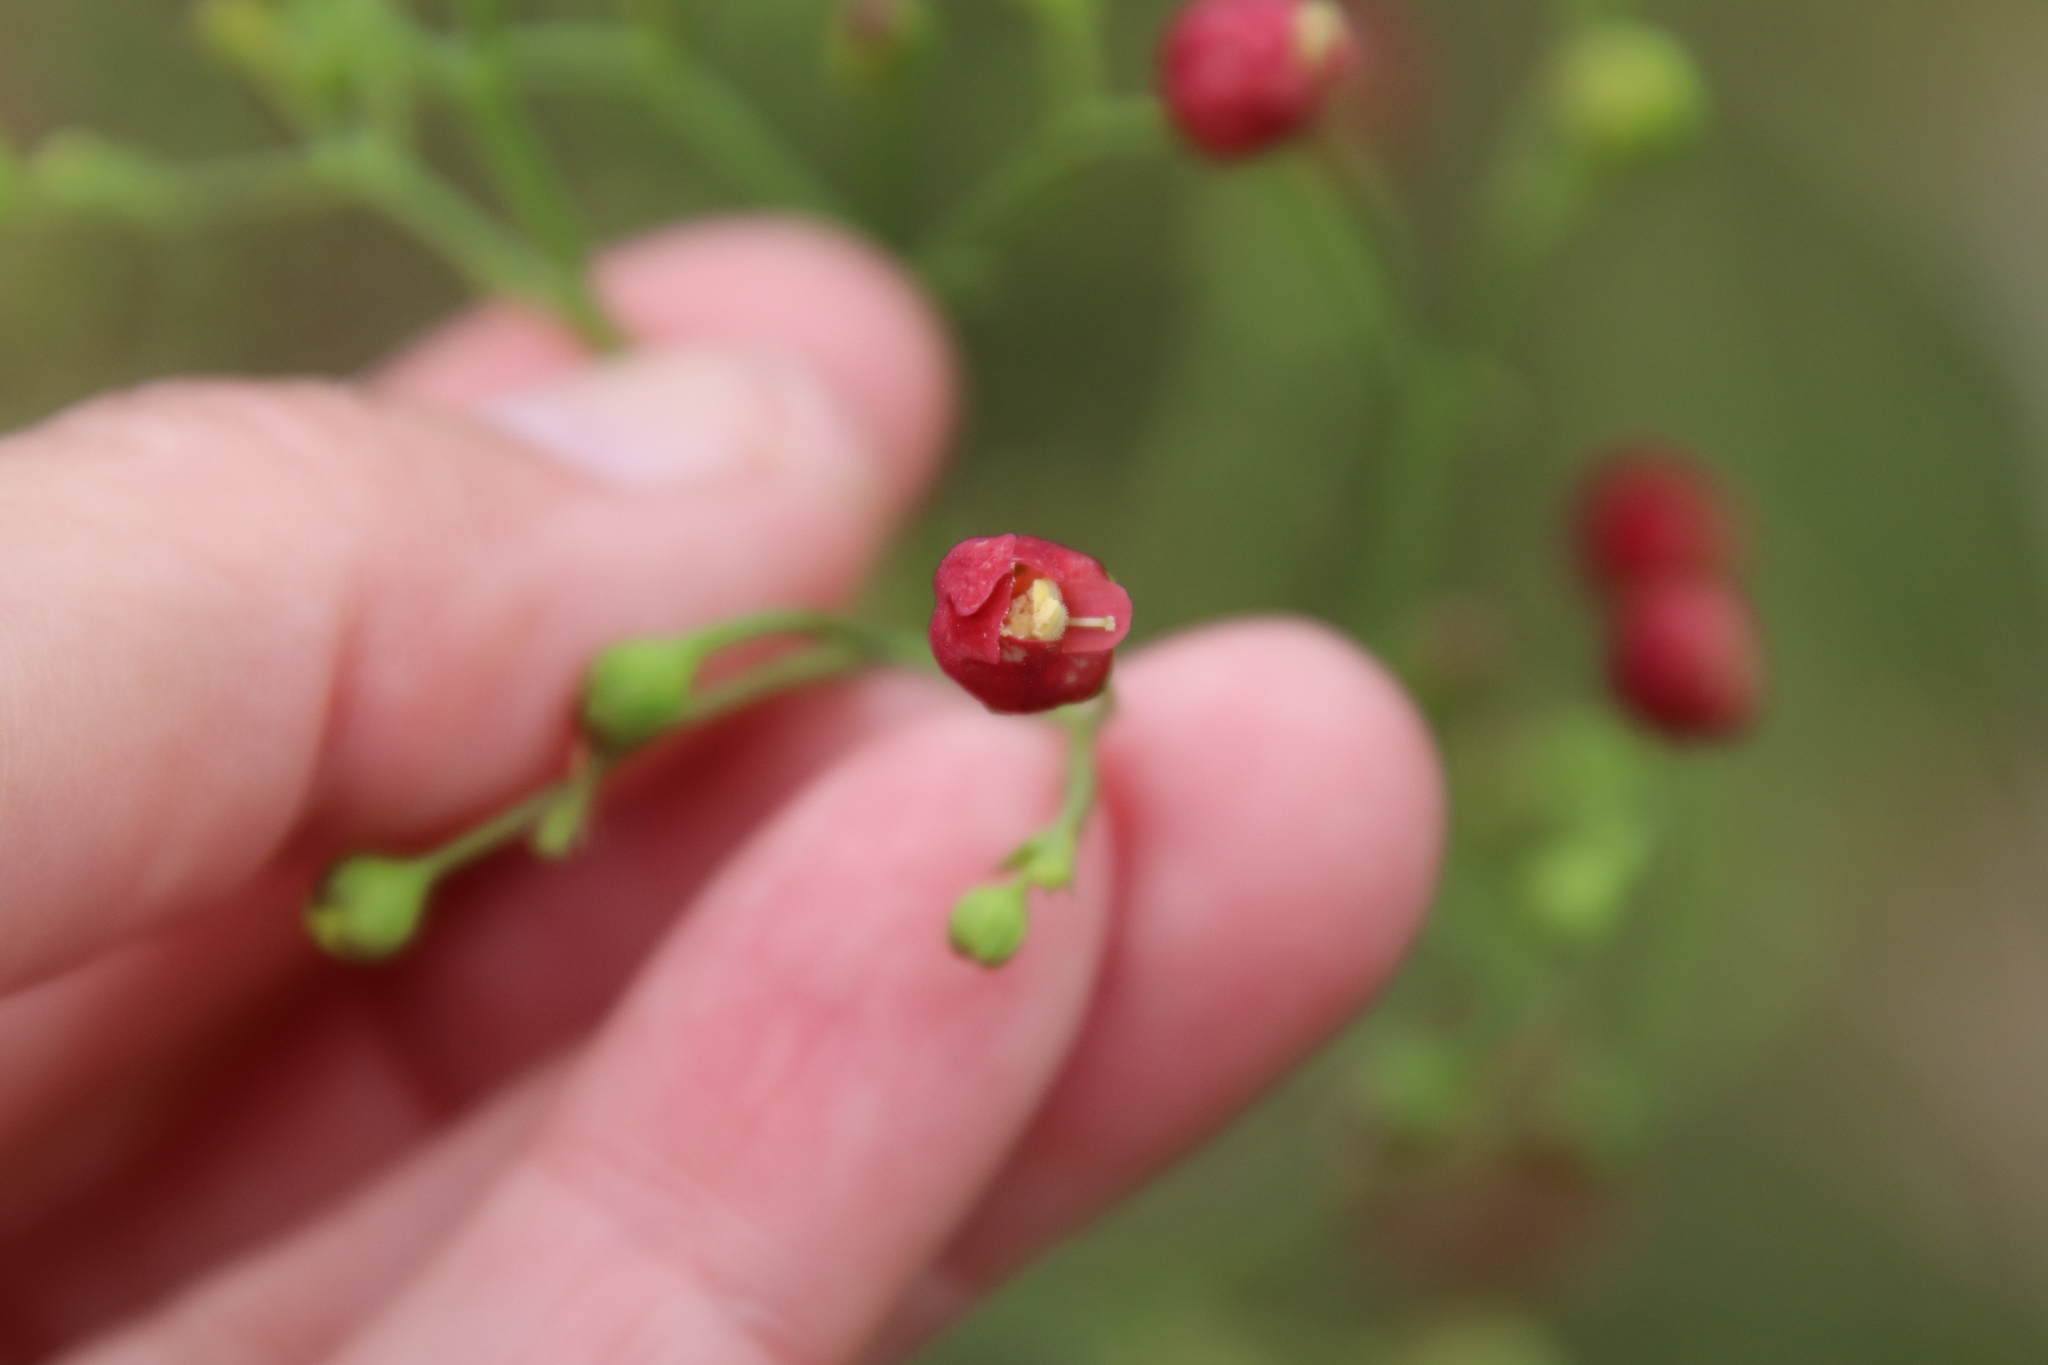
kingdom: Plantae
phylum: Tracheophyta
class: Magnoliopsida
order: Lamiales
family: Scrophulariaceae
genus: Scrophularia
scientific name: Scrophularia californica
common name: California figwort
